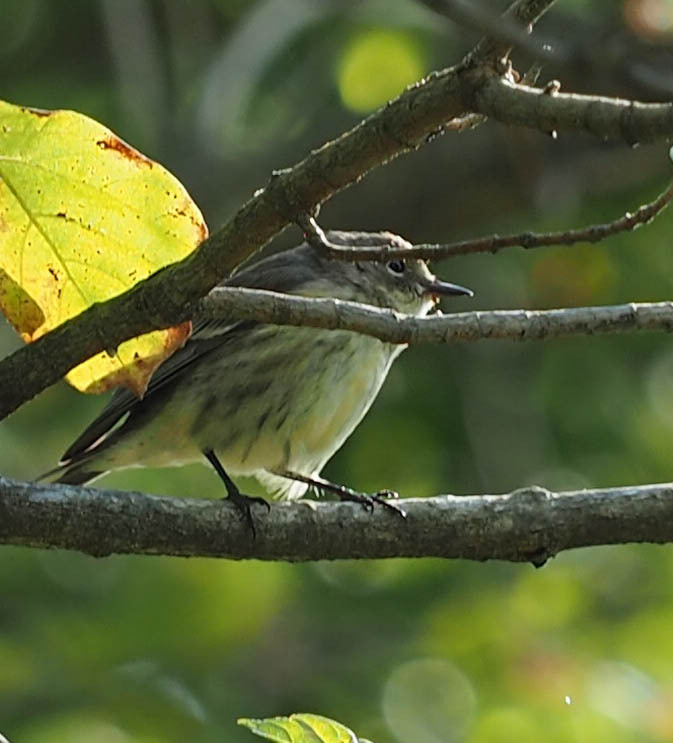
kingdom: Animalia
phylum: Chordata
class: Aves
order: Passeriformes
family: Parulidae
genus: Setophaga
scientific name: Setophaga coronata
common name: Myrtle warbler
